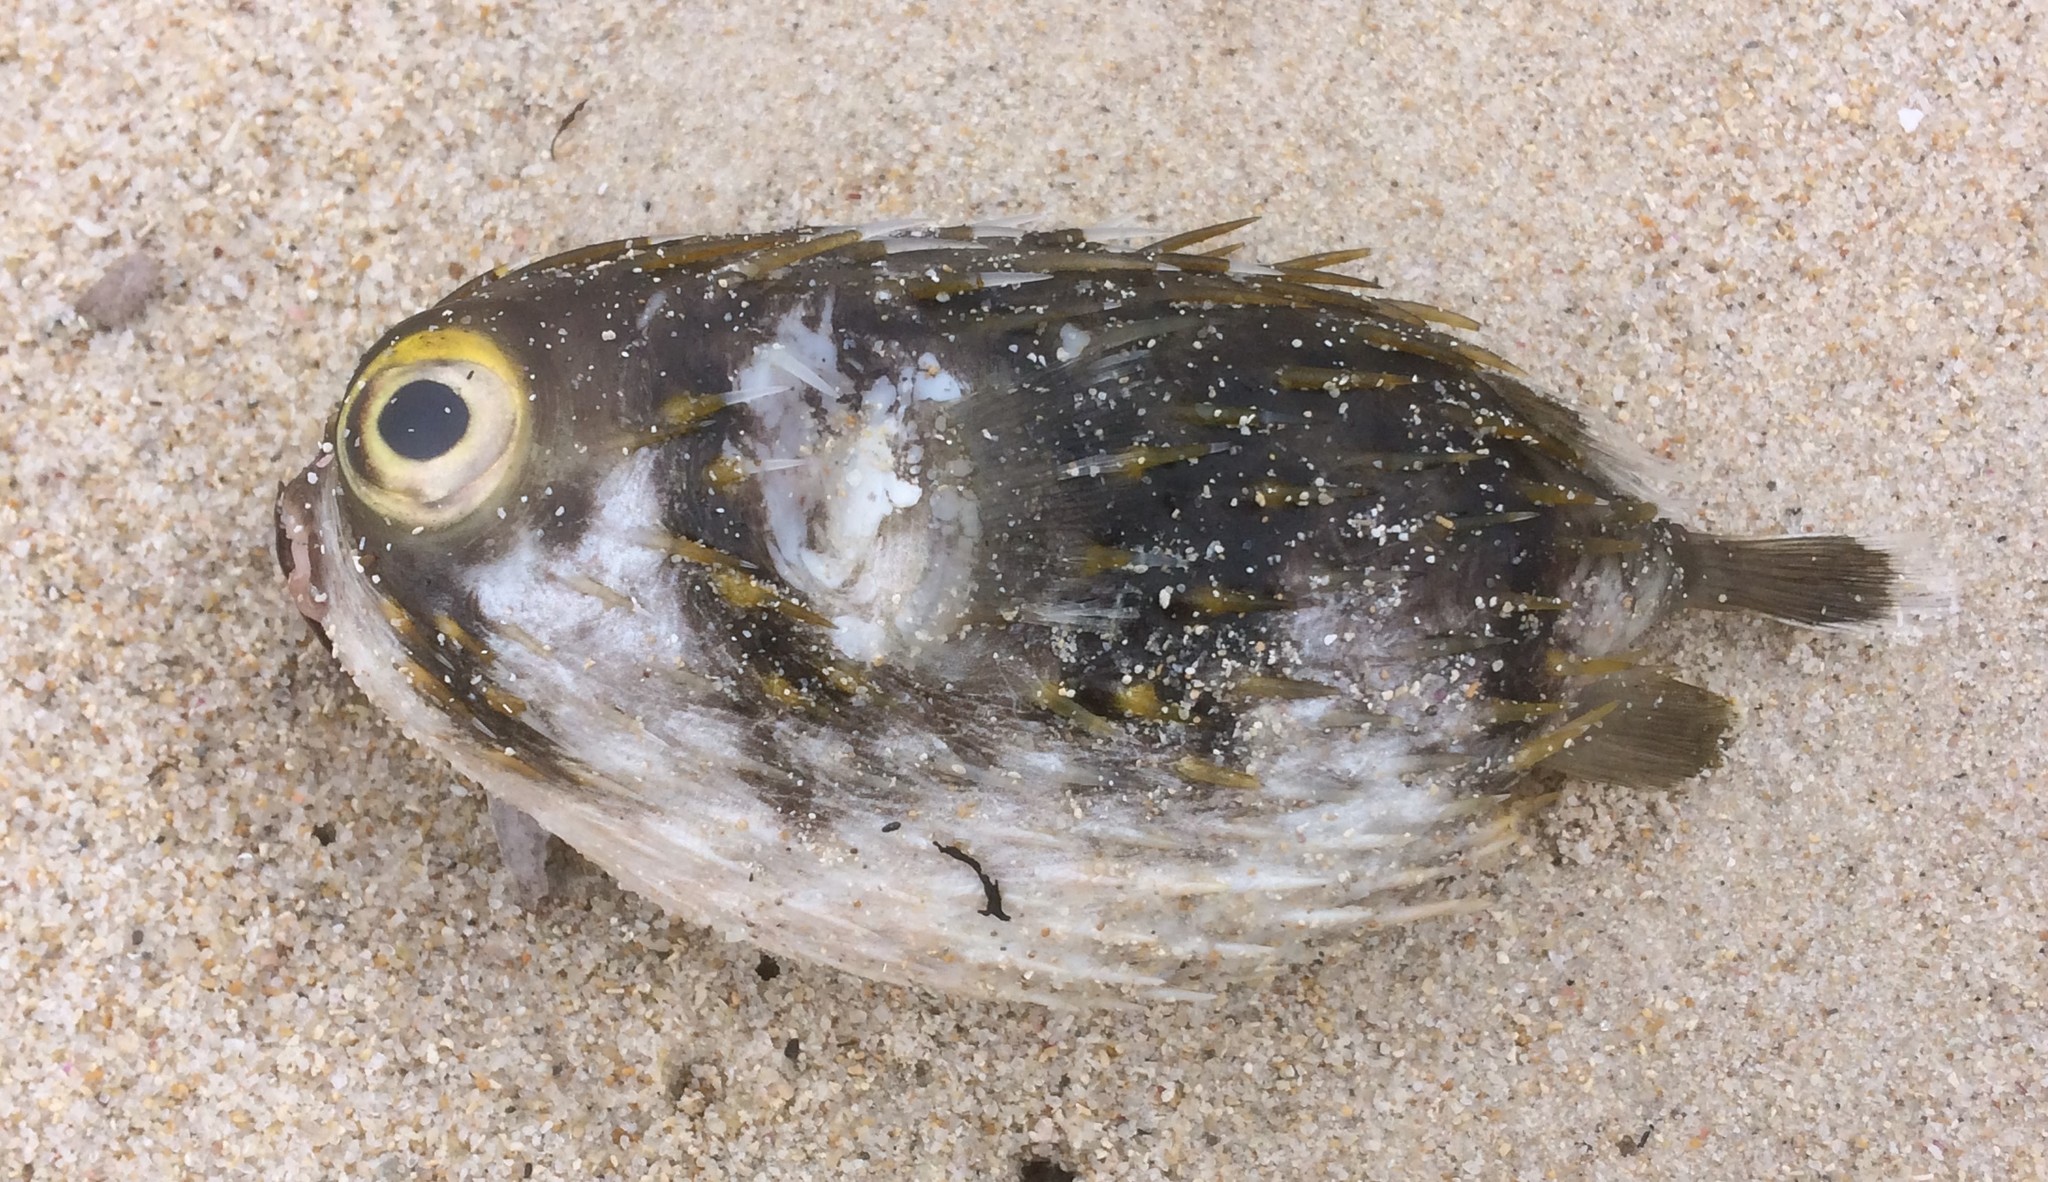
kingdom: Animalia
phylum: Chordata
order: Tetraodontiformes
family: Diodontidae
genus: Diodon
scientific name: Diodon nicthemerus
